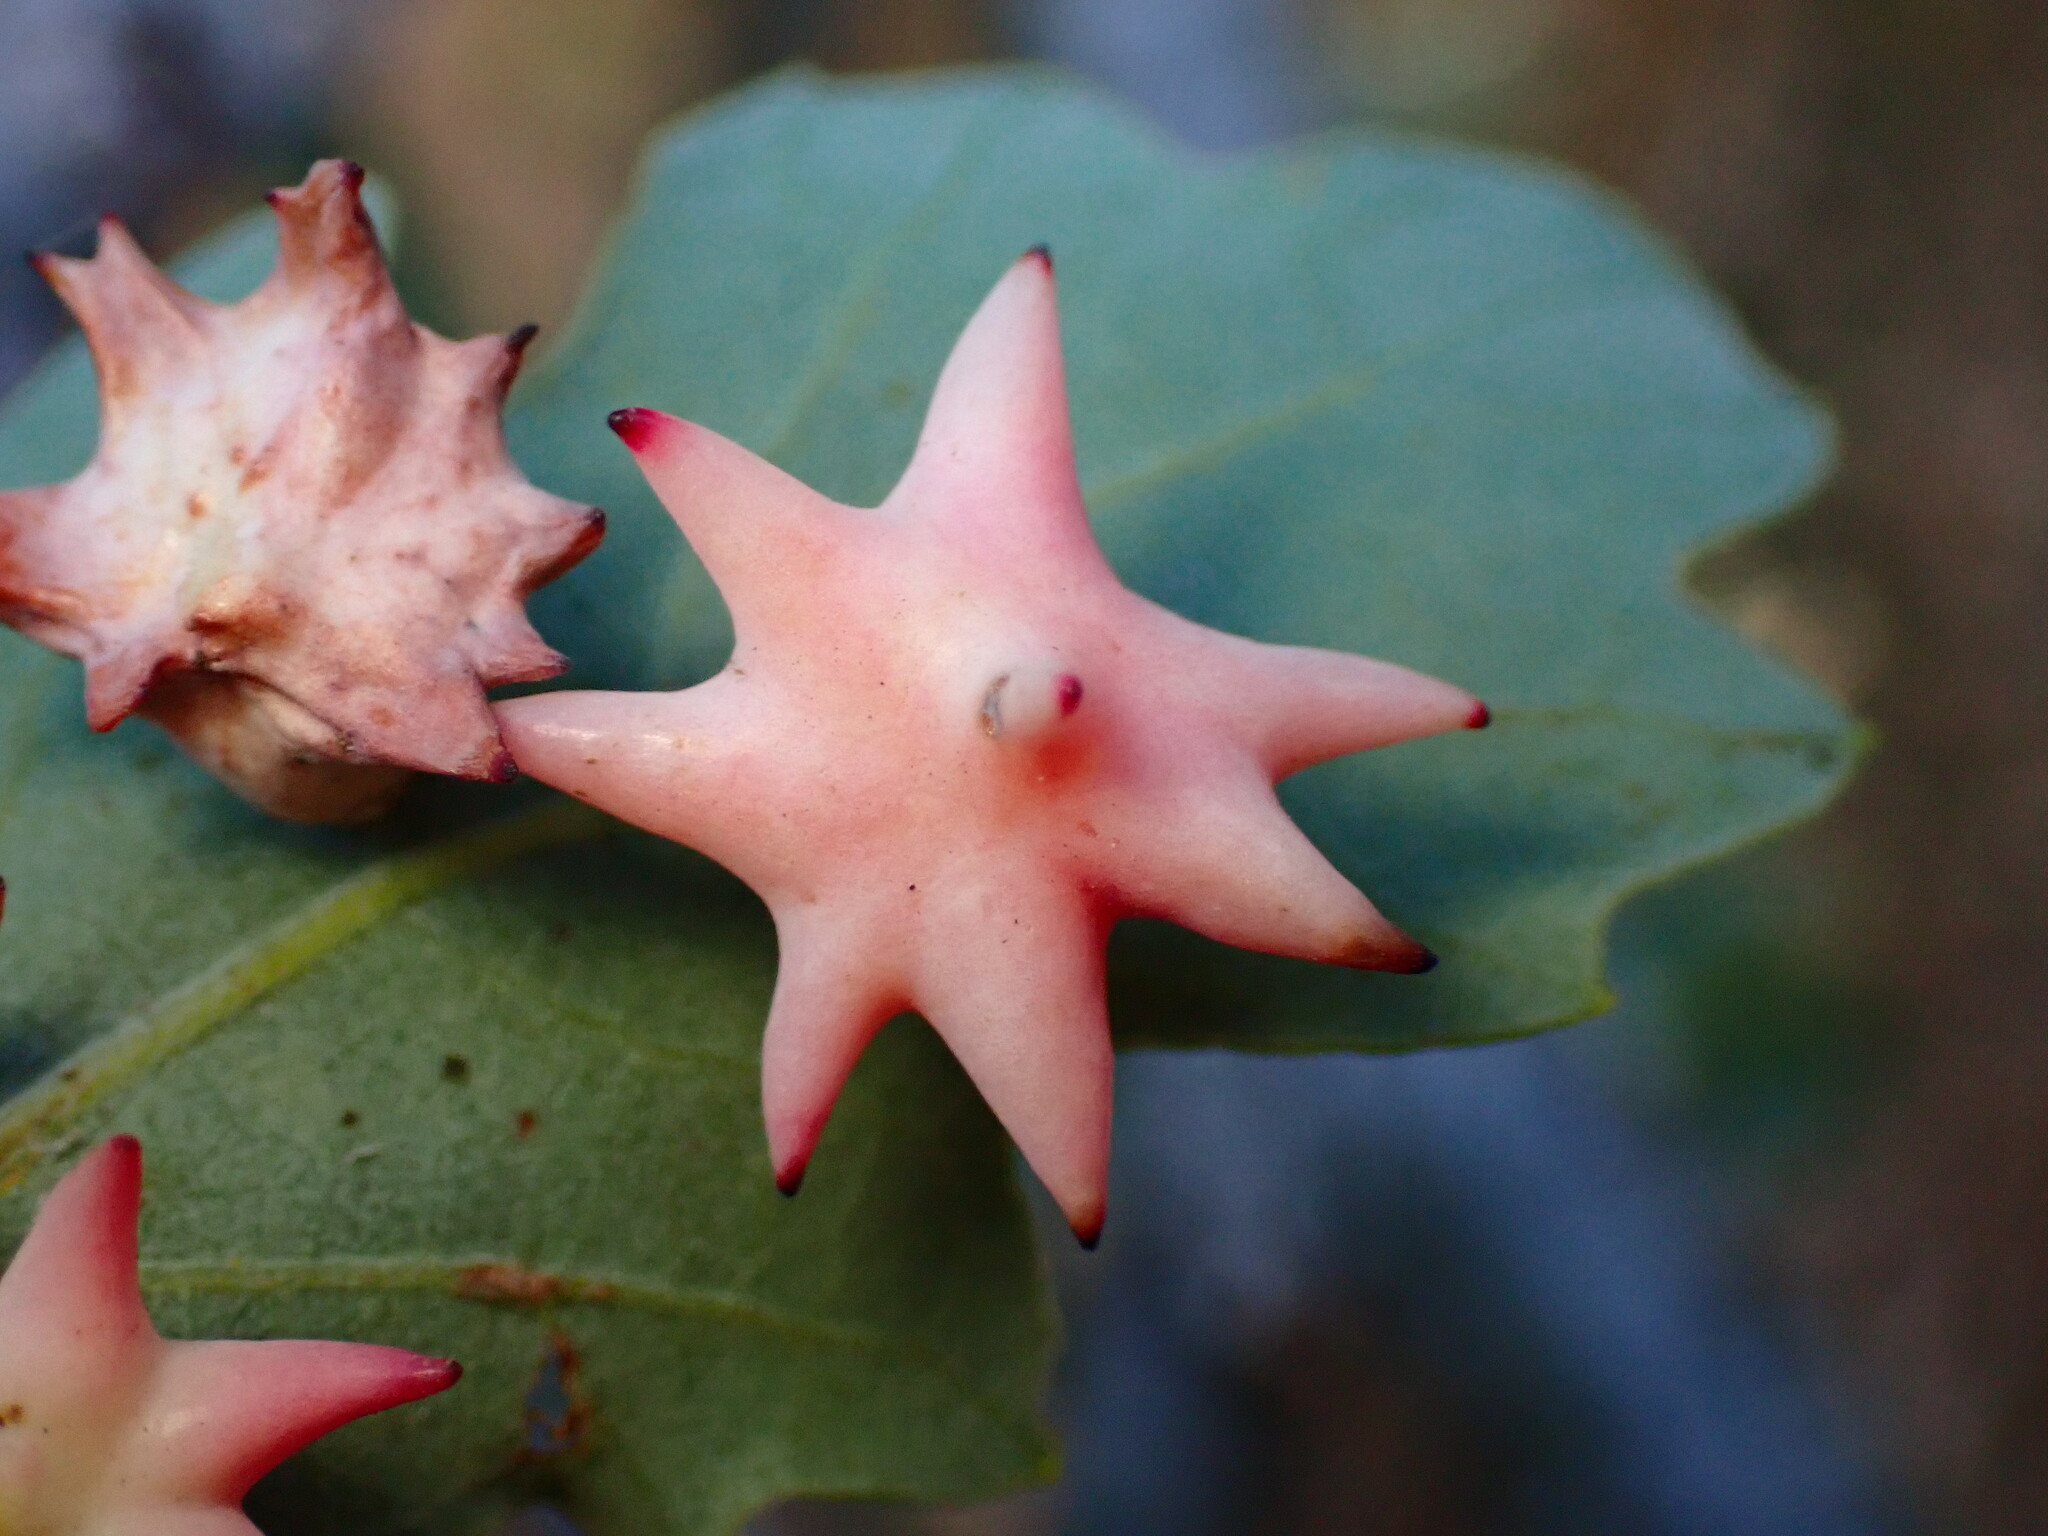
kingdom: Animalia
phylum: Arthropoda
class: Insecta
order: Hymenoptera
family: Cynipidae
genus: Cynips
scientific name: Cynips douglasi
